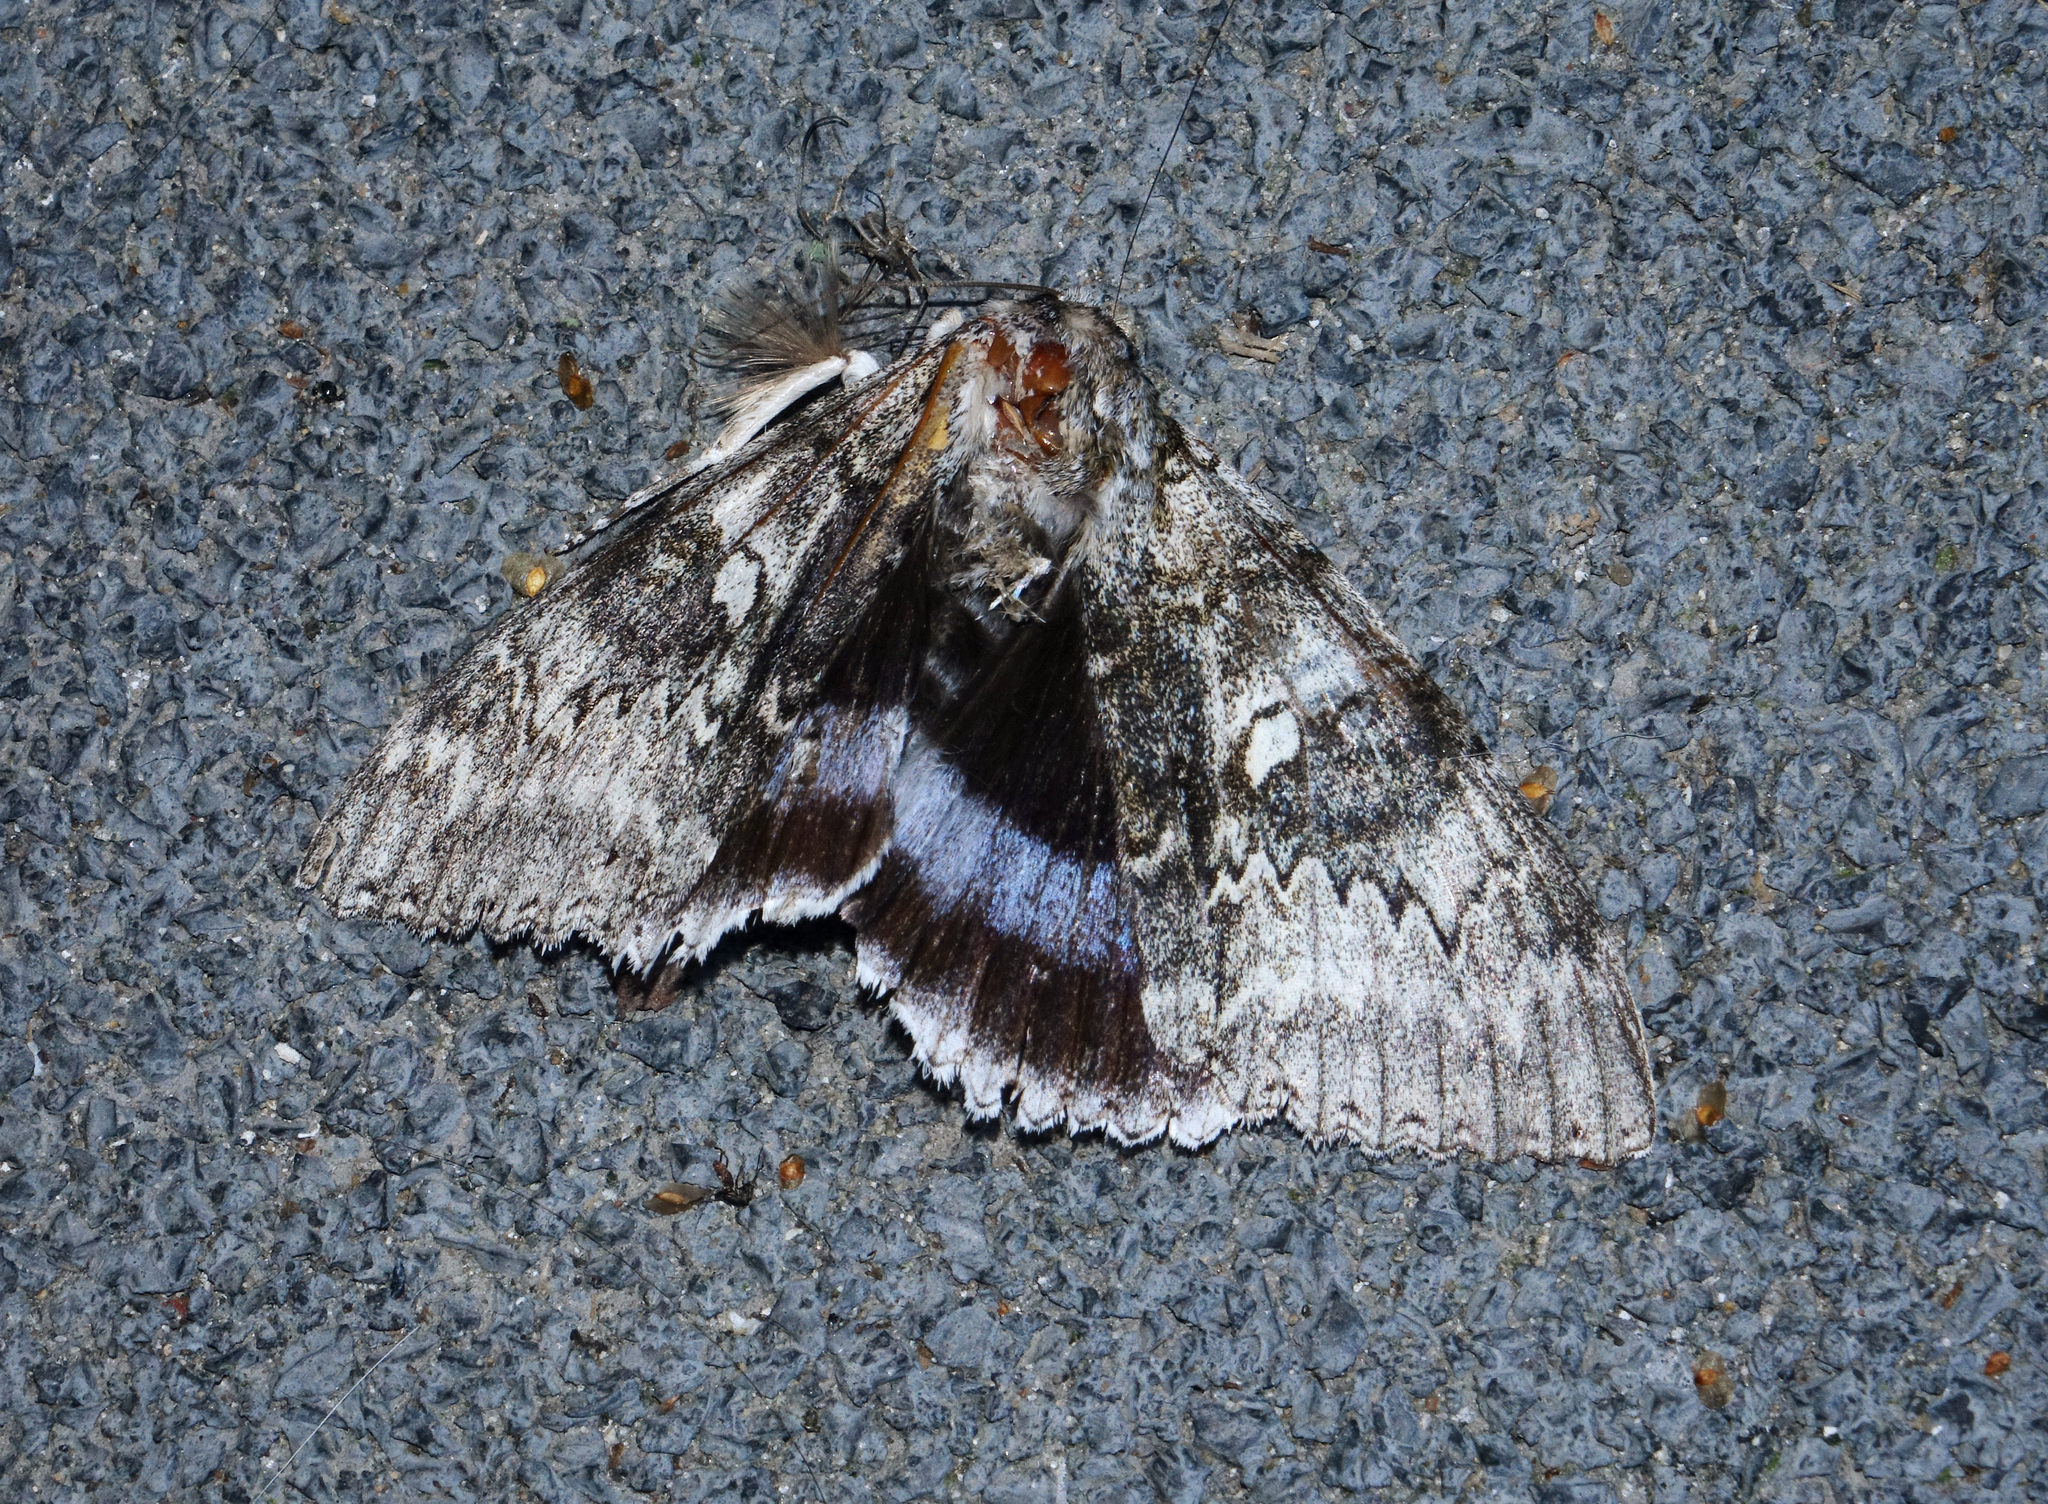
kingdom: Animalia
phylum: Arthropoda
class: Insecta
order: Lepidoptera
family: Erebidae
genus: Catocala
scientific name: Catocala fraxini
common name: Clifden nonpareil
